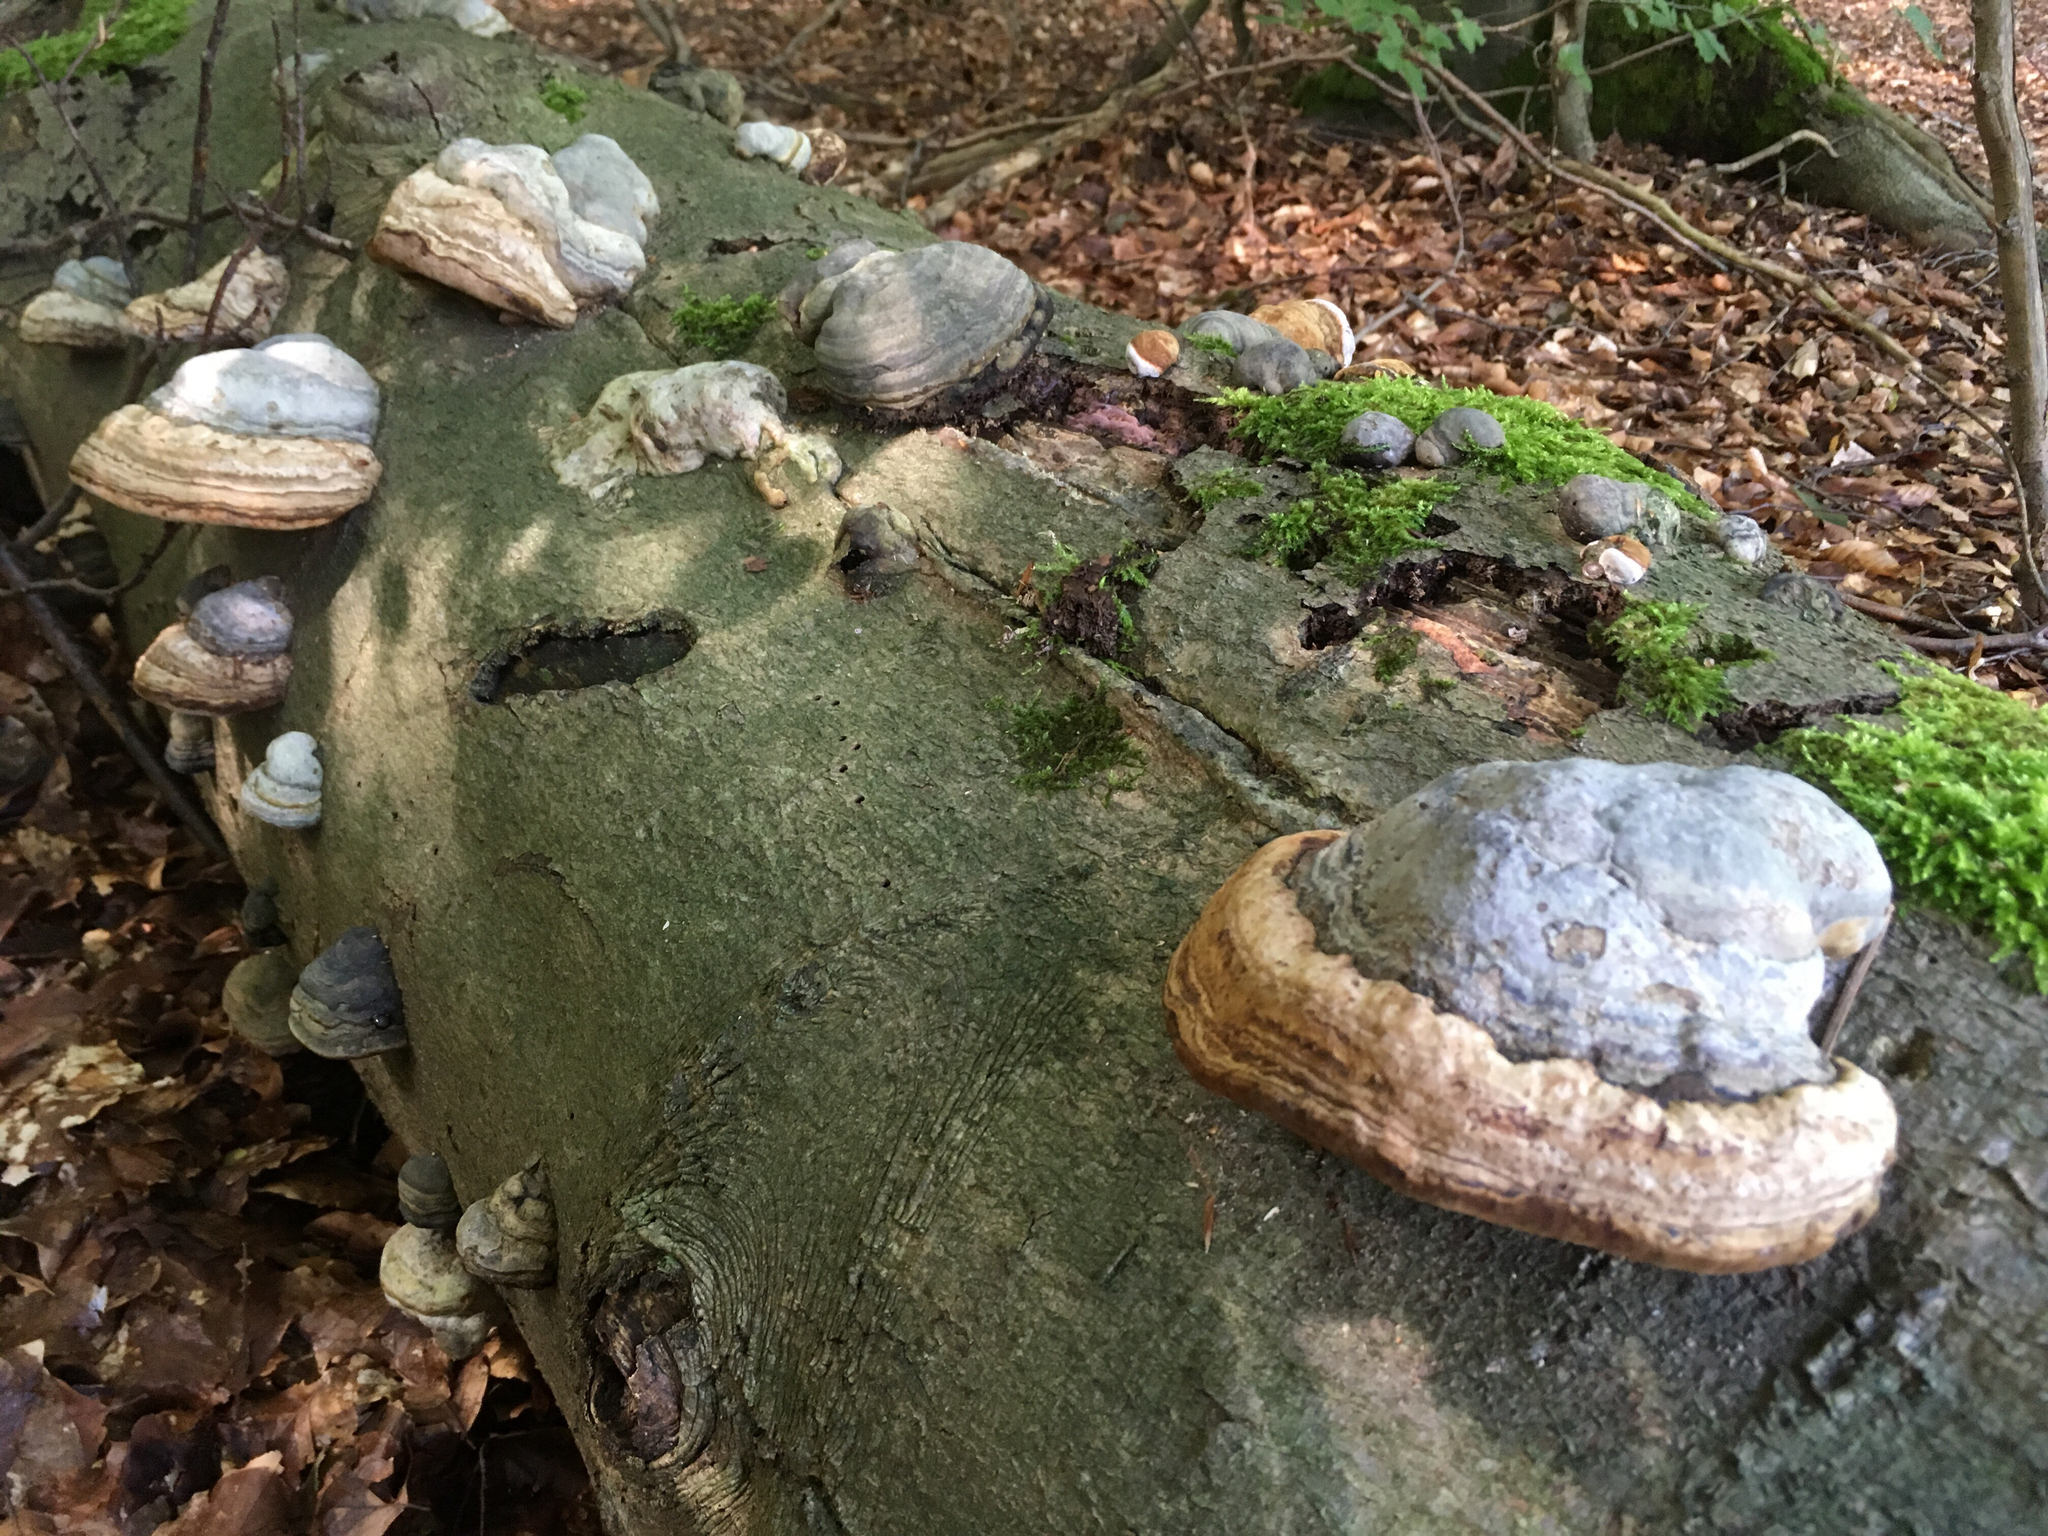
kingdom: Fungi
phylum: Basidiomycota
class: Agaricomycetes
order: Polyporales
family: Polyporaceae
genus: Fomes
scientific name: Fomes fomentarius
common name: Hoof fungus
